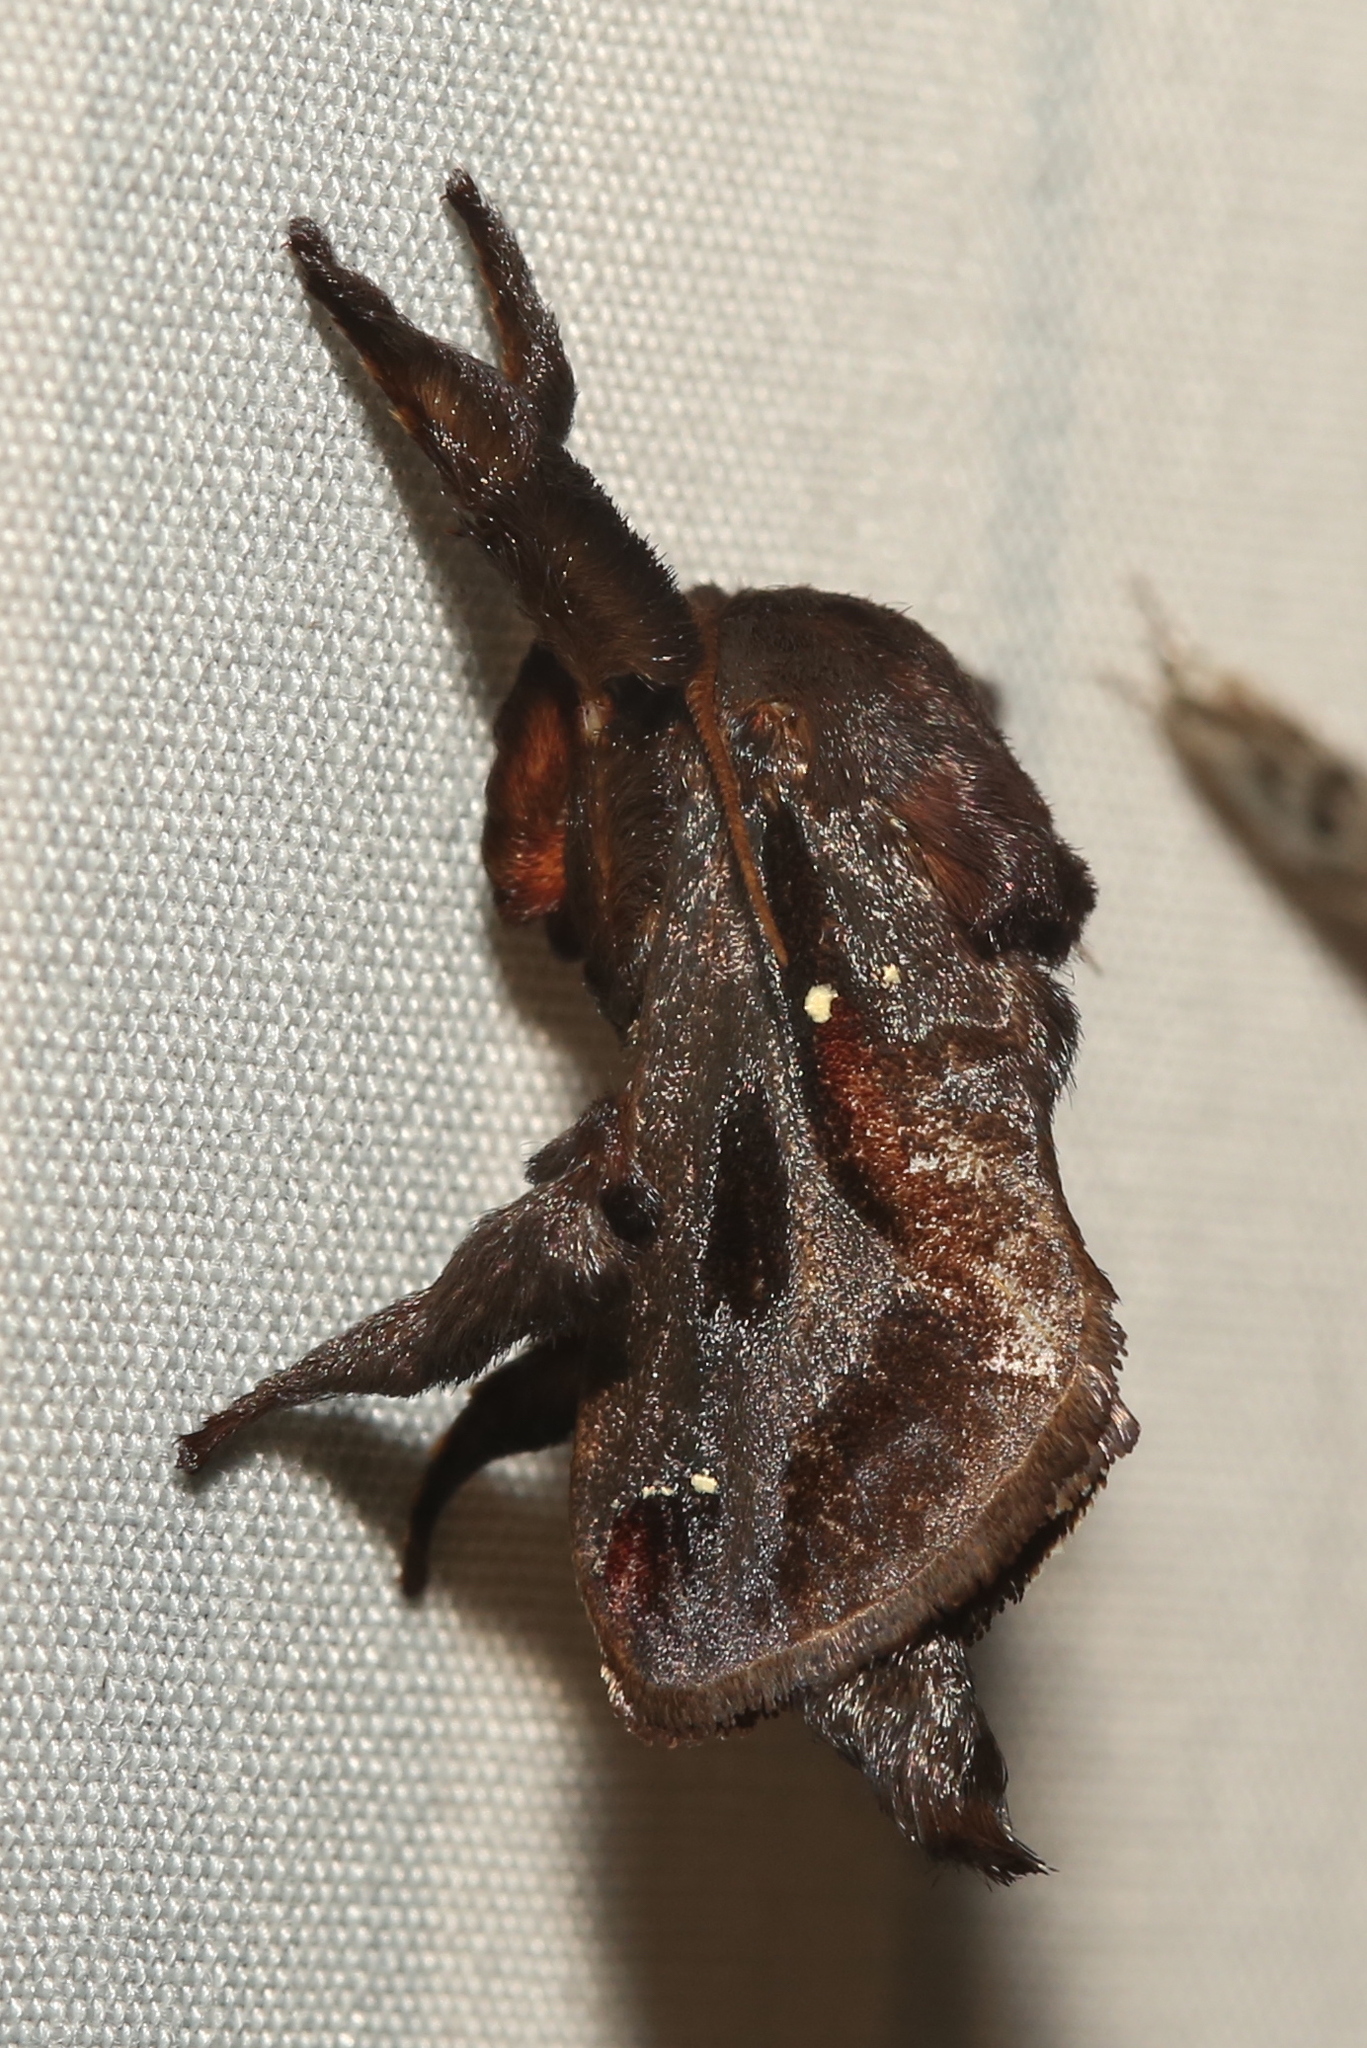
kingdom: Animalia
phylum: Arthropoda
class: Insecta
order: Lepidoptera
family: Limacodidae
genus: Acharia
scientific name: Acharia stimulea
